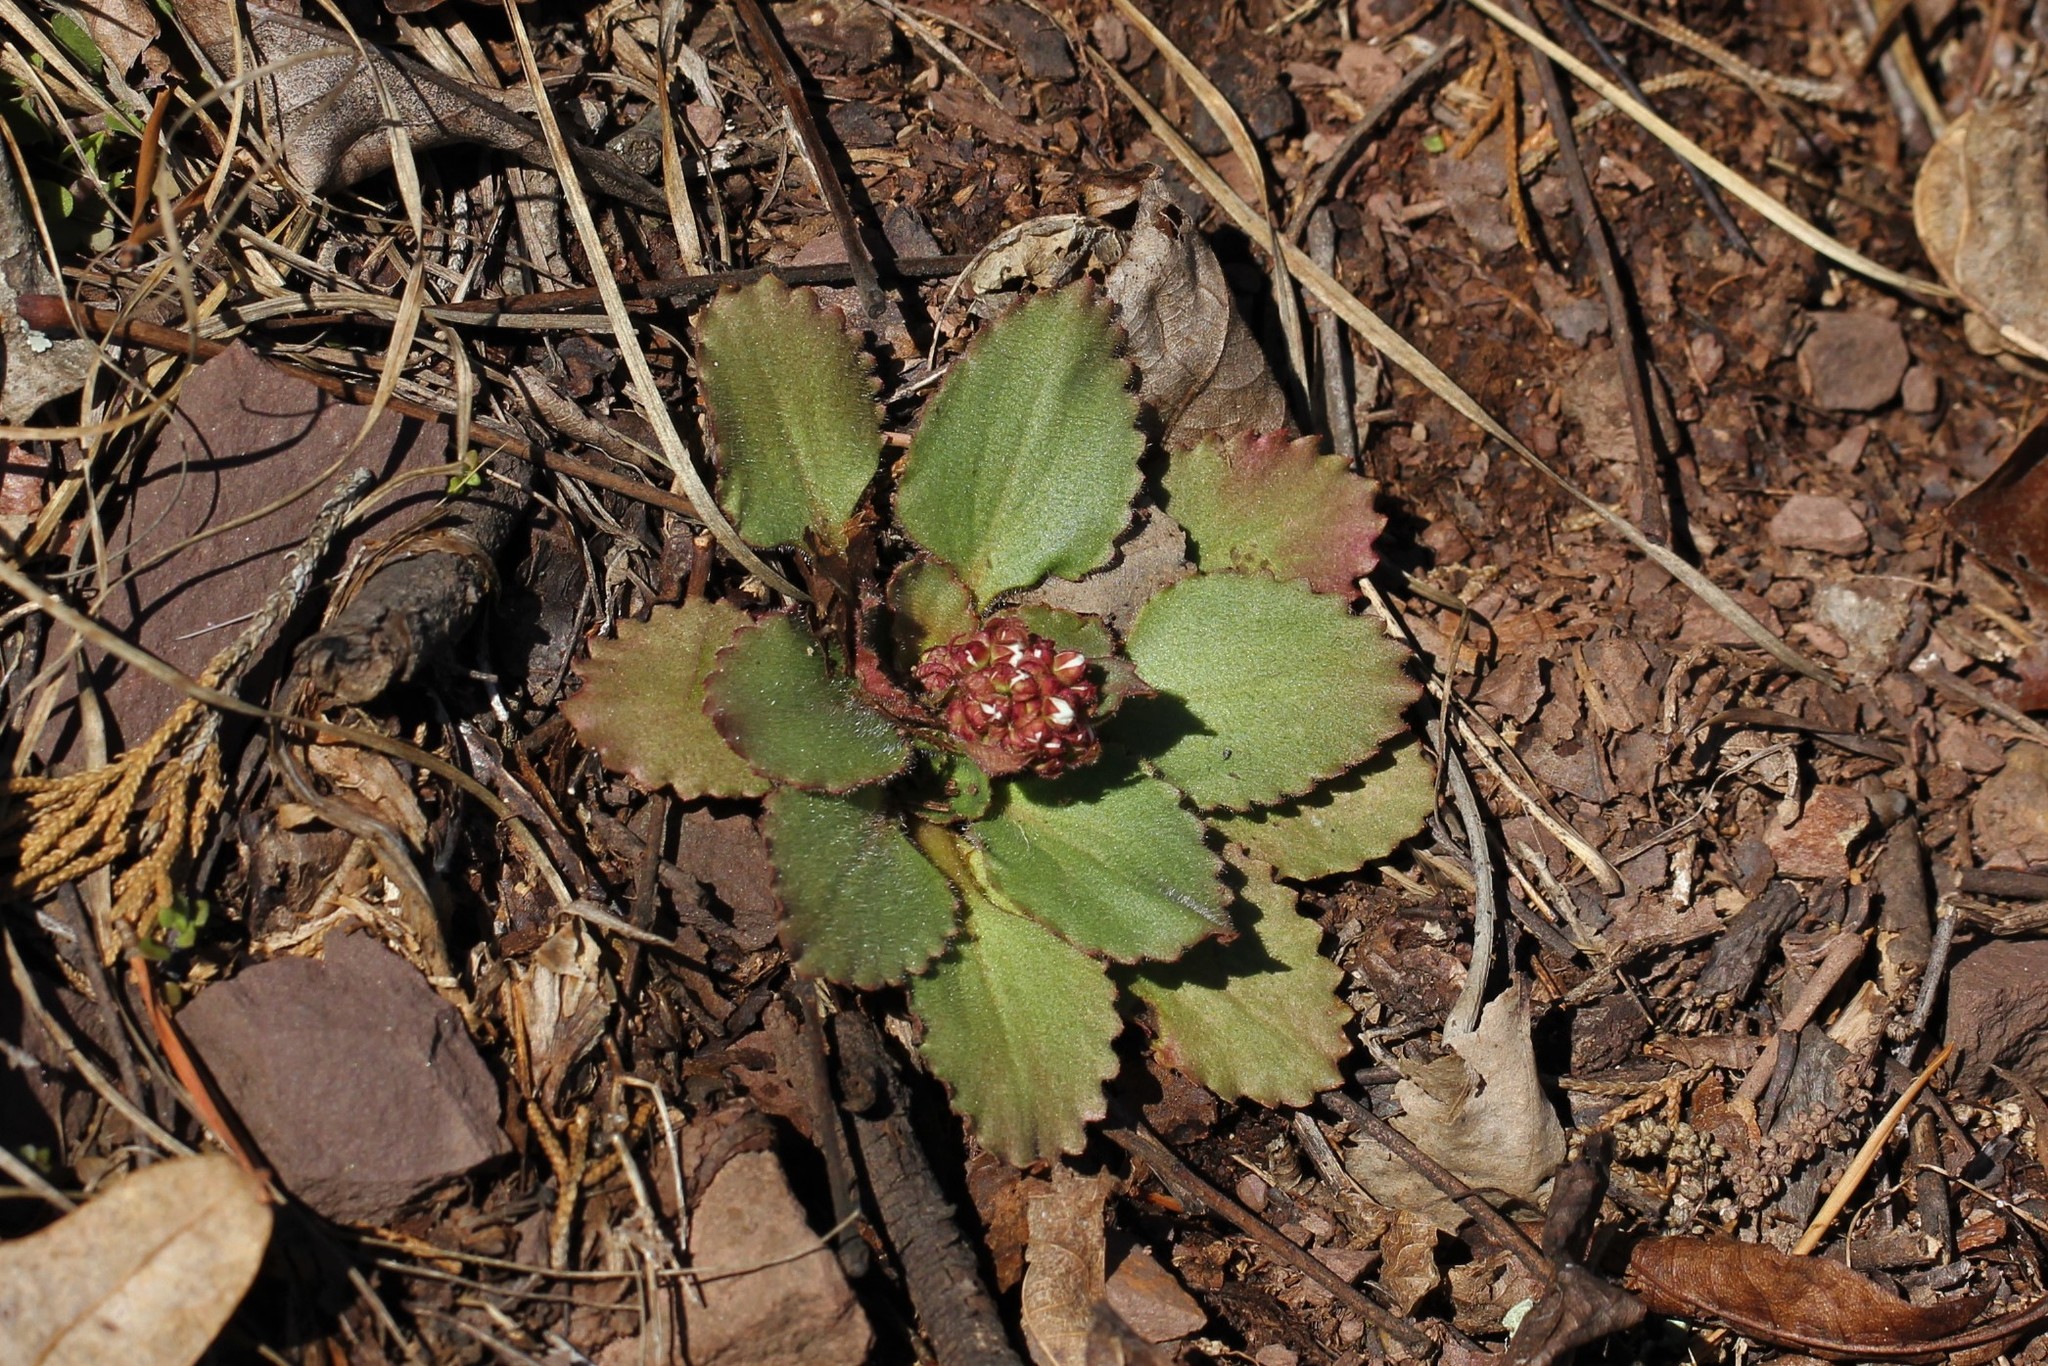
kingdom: Plantae
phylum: Tracheophyta
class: Magnoliopsida
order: Saxifragales
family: Saxifragaceae
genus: Micranthes
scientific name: Micranthes virginiensis
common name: Early saxifrage
